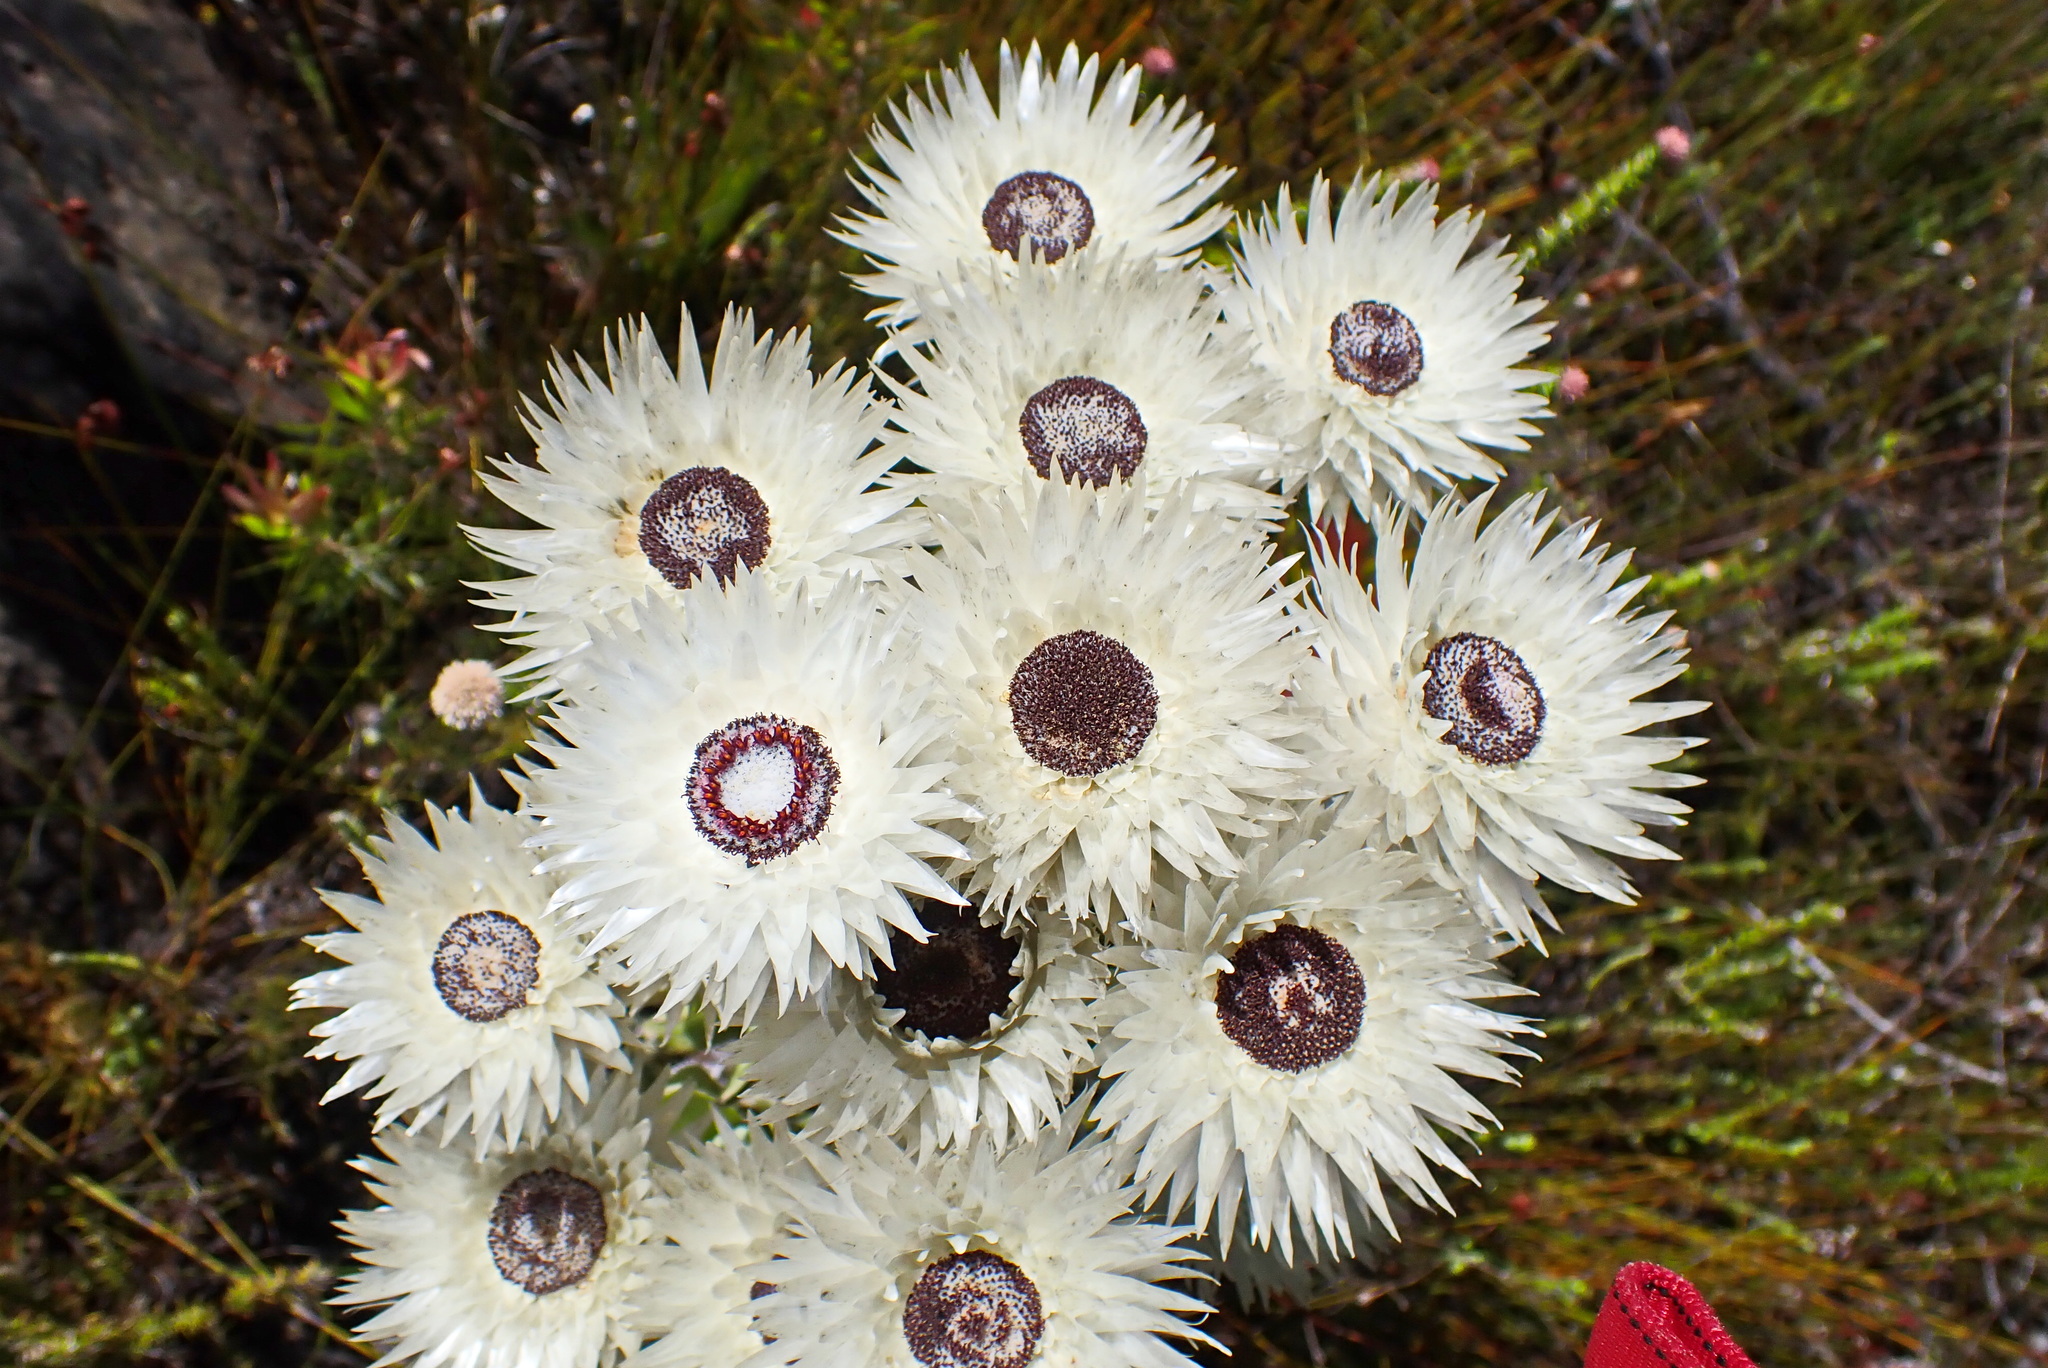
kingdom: Plantae
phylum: Tracheophyta
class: Magnoliopsida
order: Asterales
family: Asteraceae
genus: Syncarpha
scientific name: Syncarpha vestita
